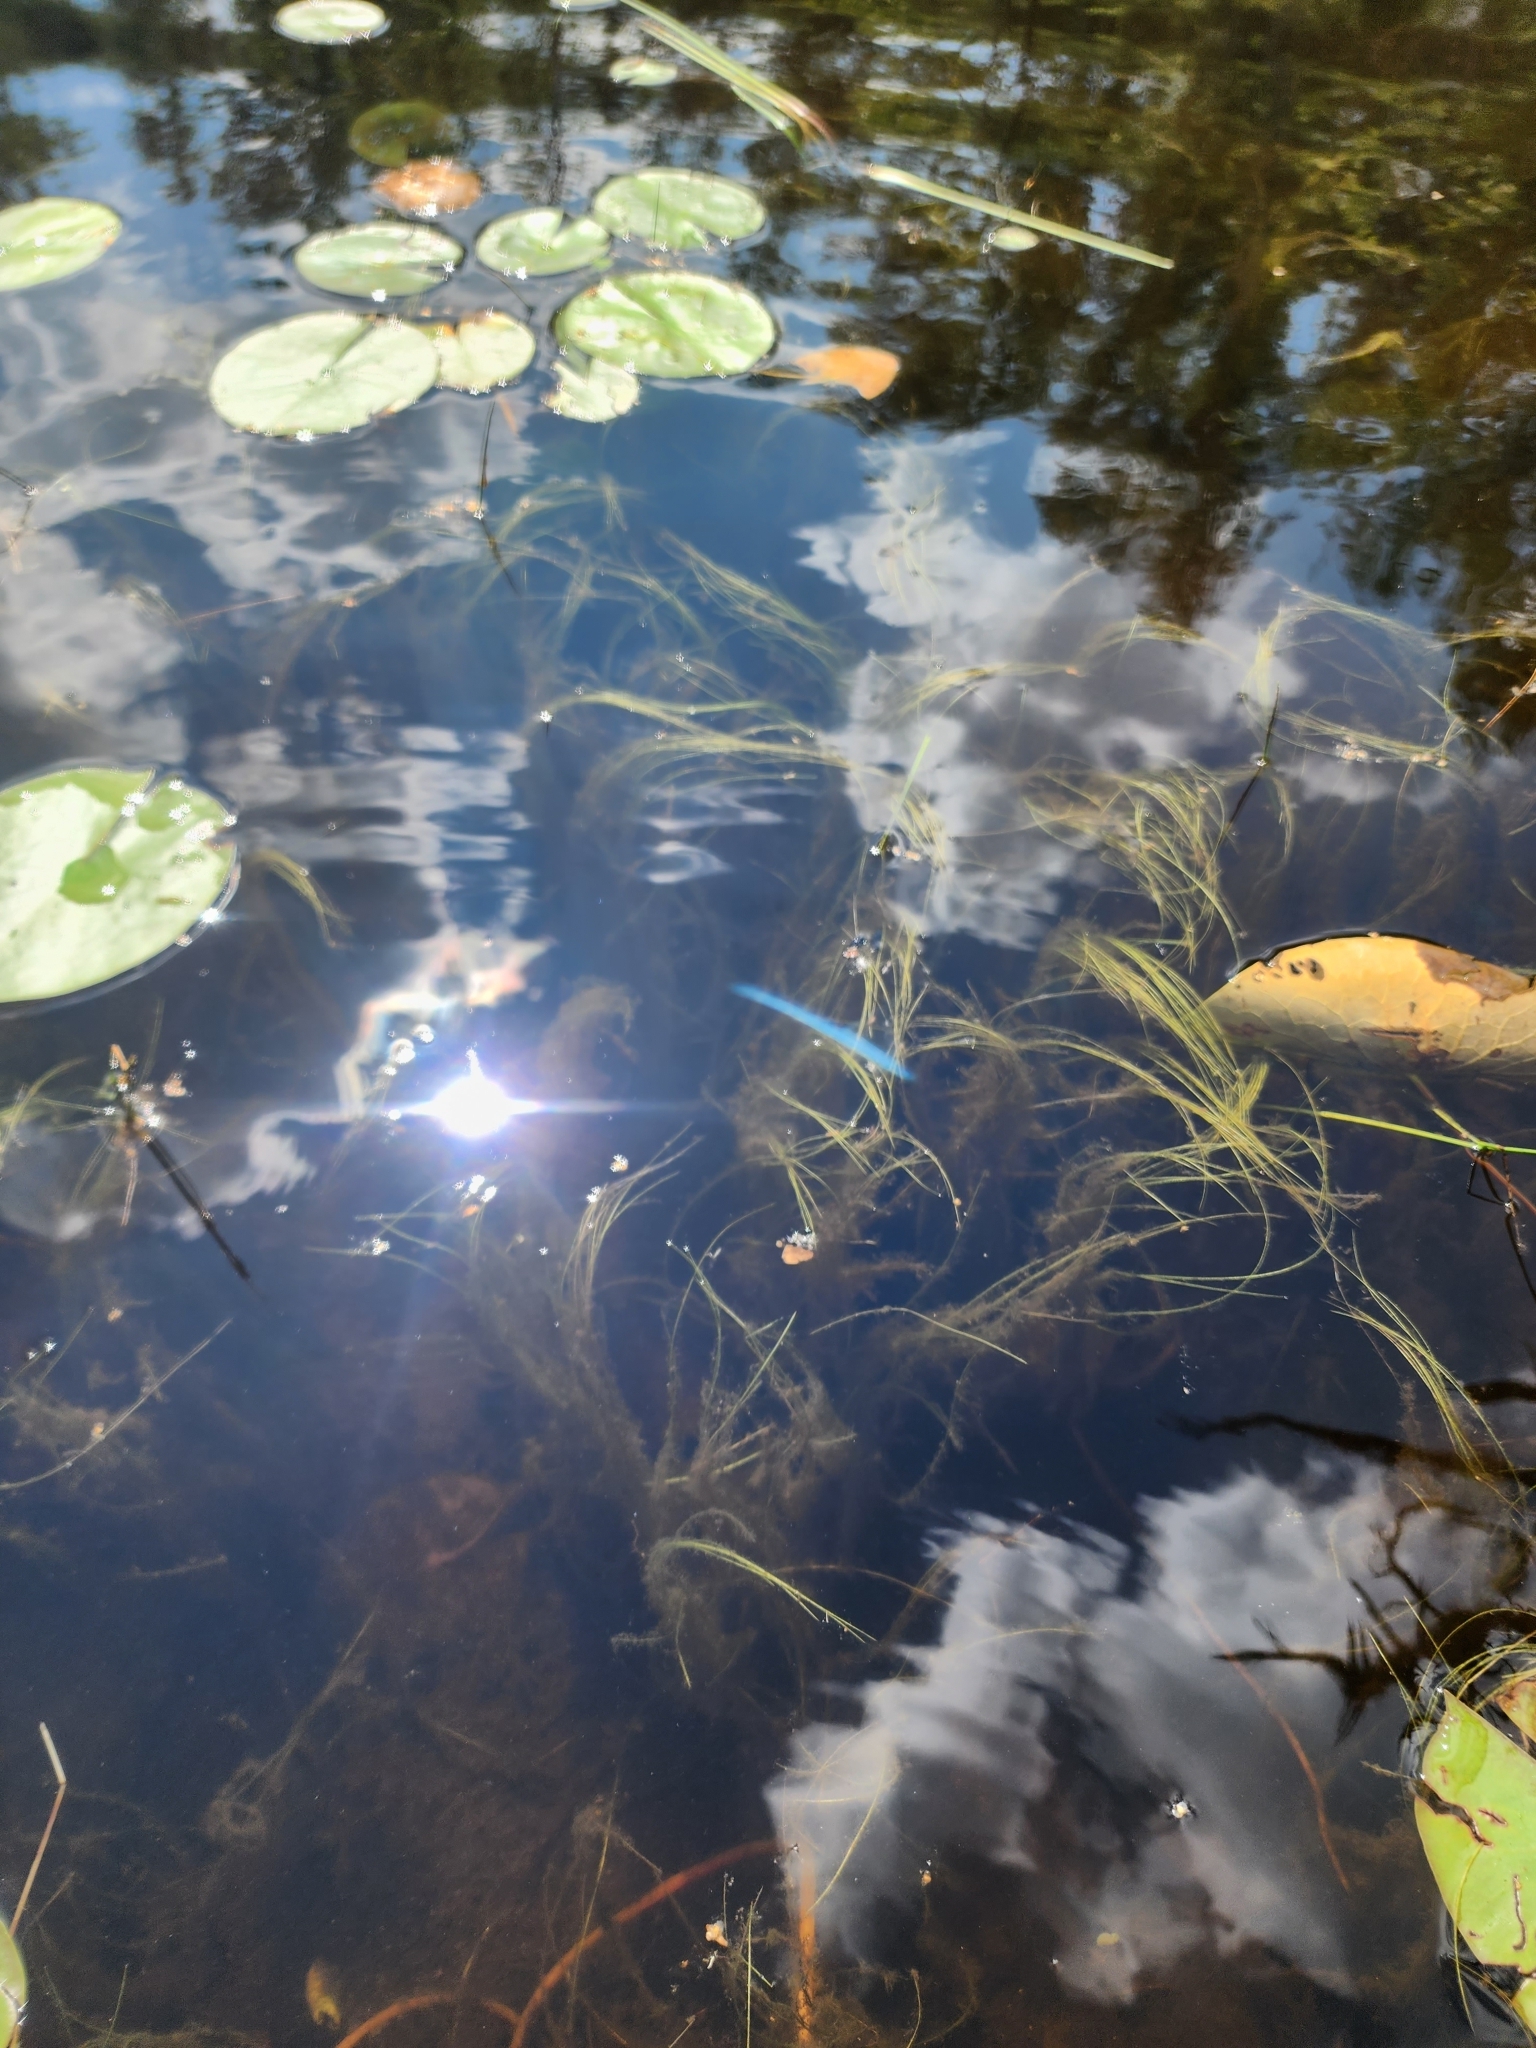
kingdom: Plantae
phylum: Tracheophyta
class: Liliopsida
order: Poales
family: Cyperaceae
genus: Schoenoplectus
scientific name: Schoenoplectus subterminalis
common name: Swaying bulrush
